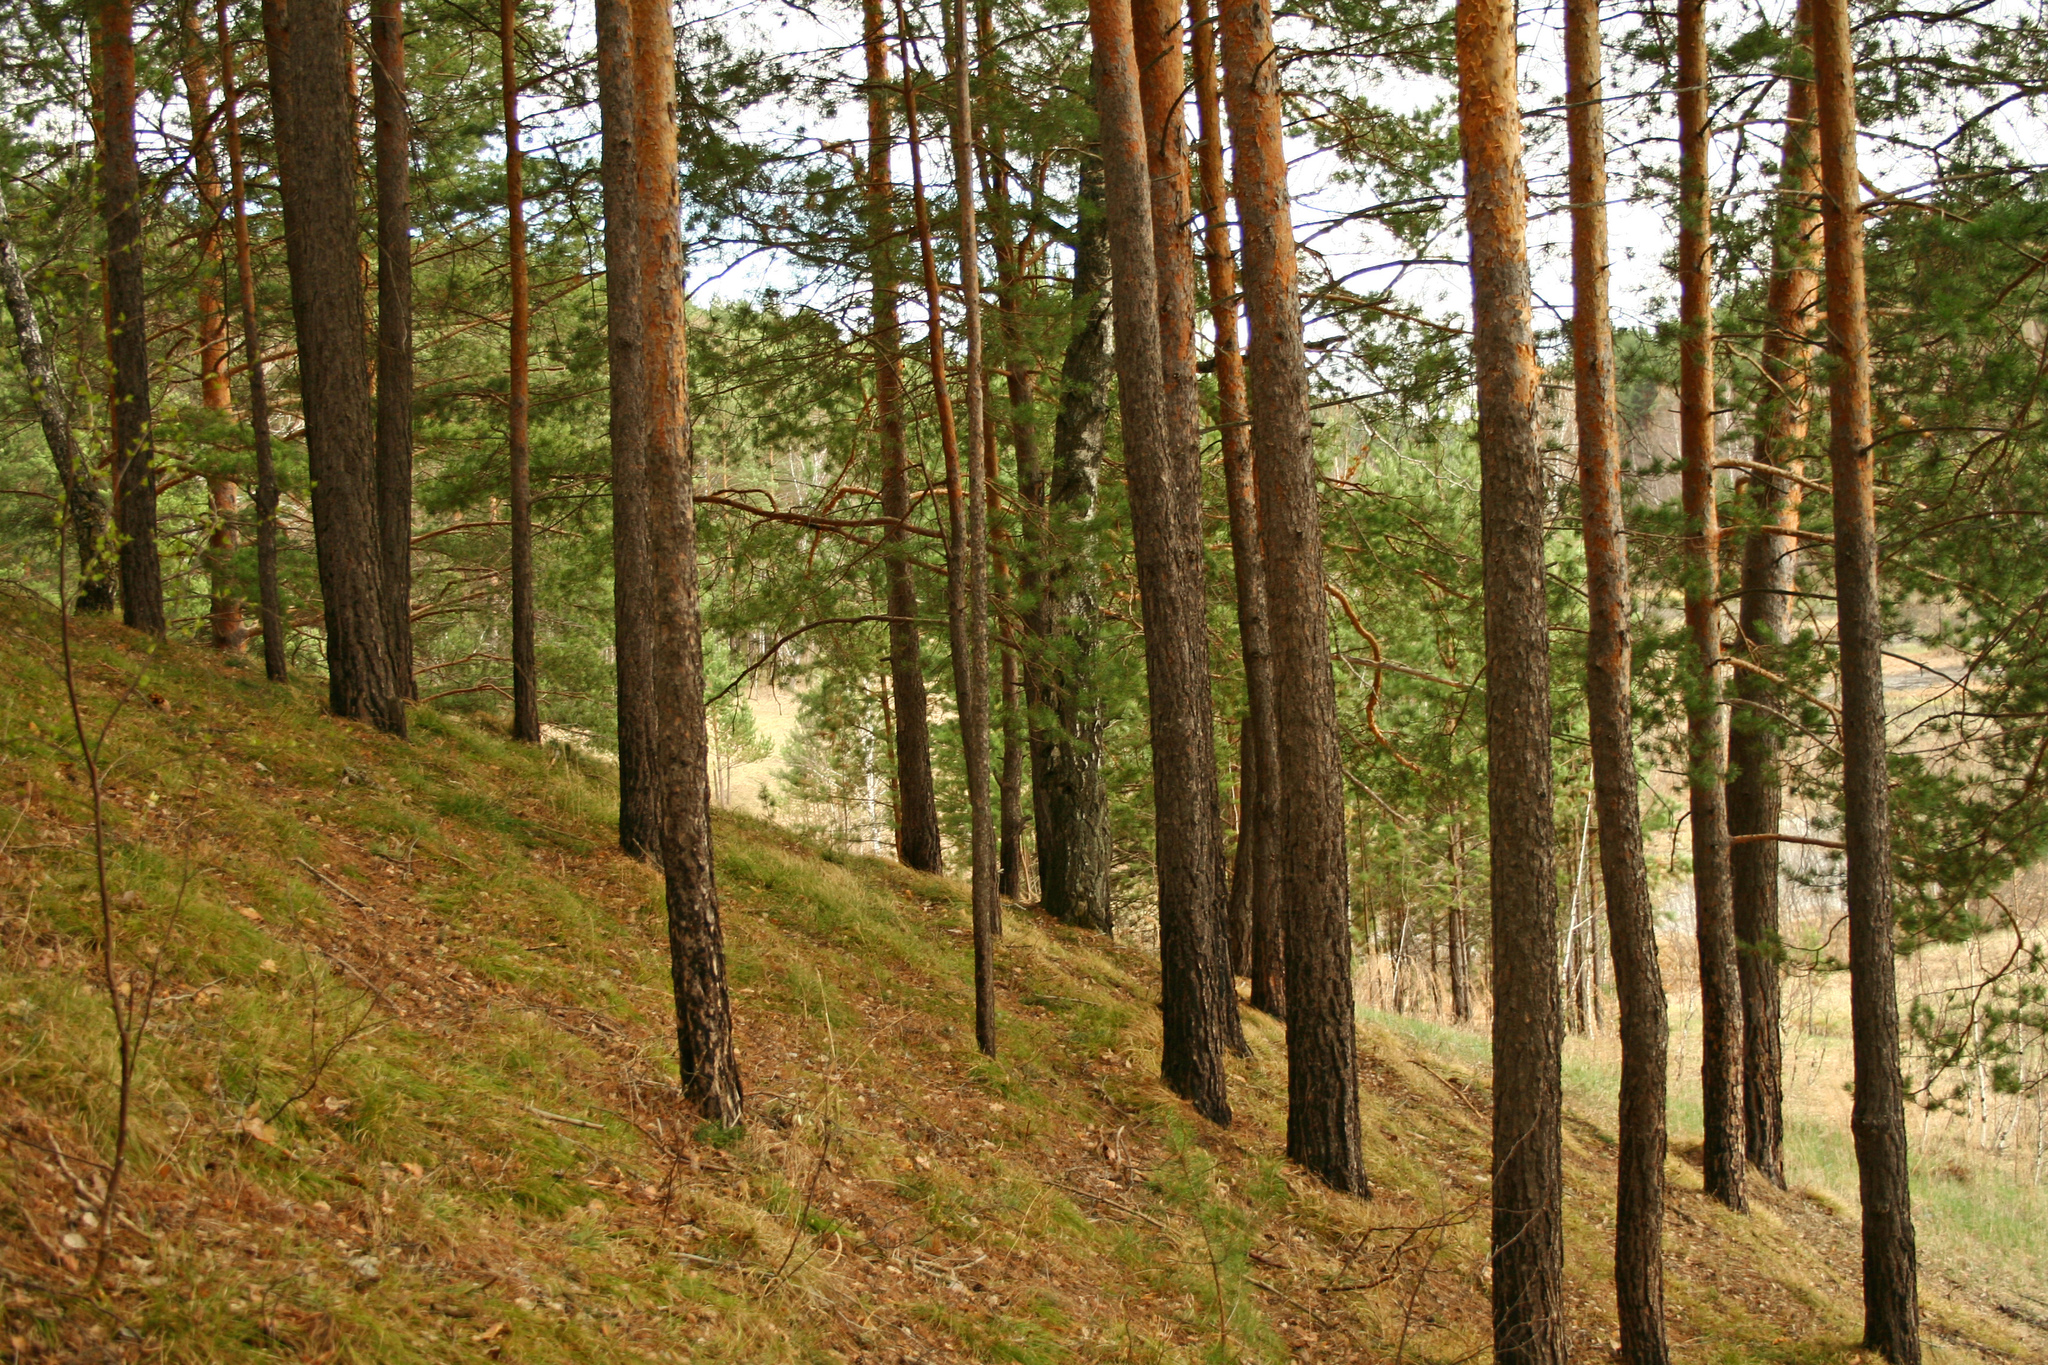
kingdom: Plantae
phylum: Tracheophyta
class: Pinopsida
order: Pinales
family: Pinaceae
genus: Pinus
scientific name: Pinus sylvestris
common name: Scots pine
